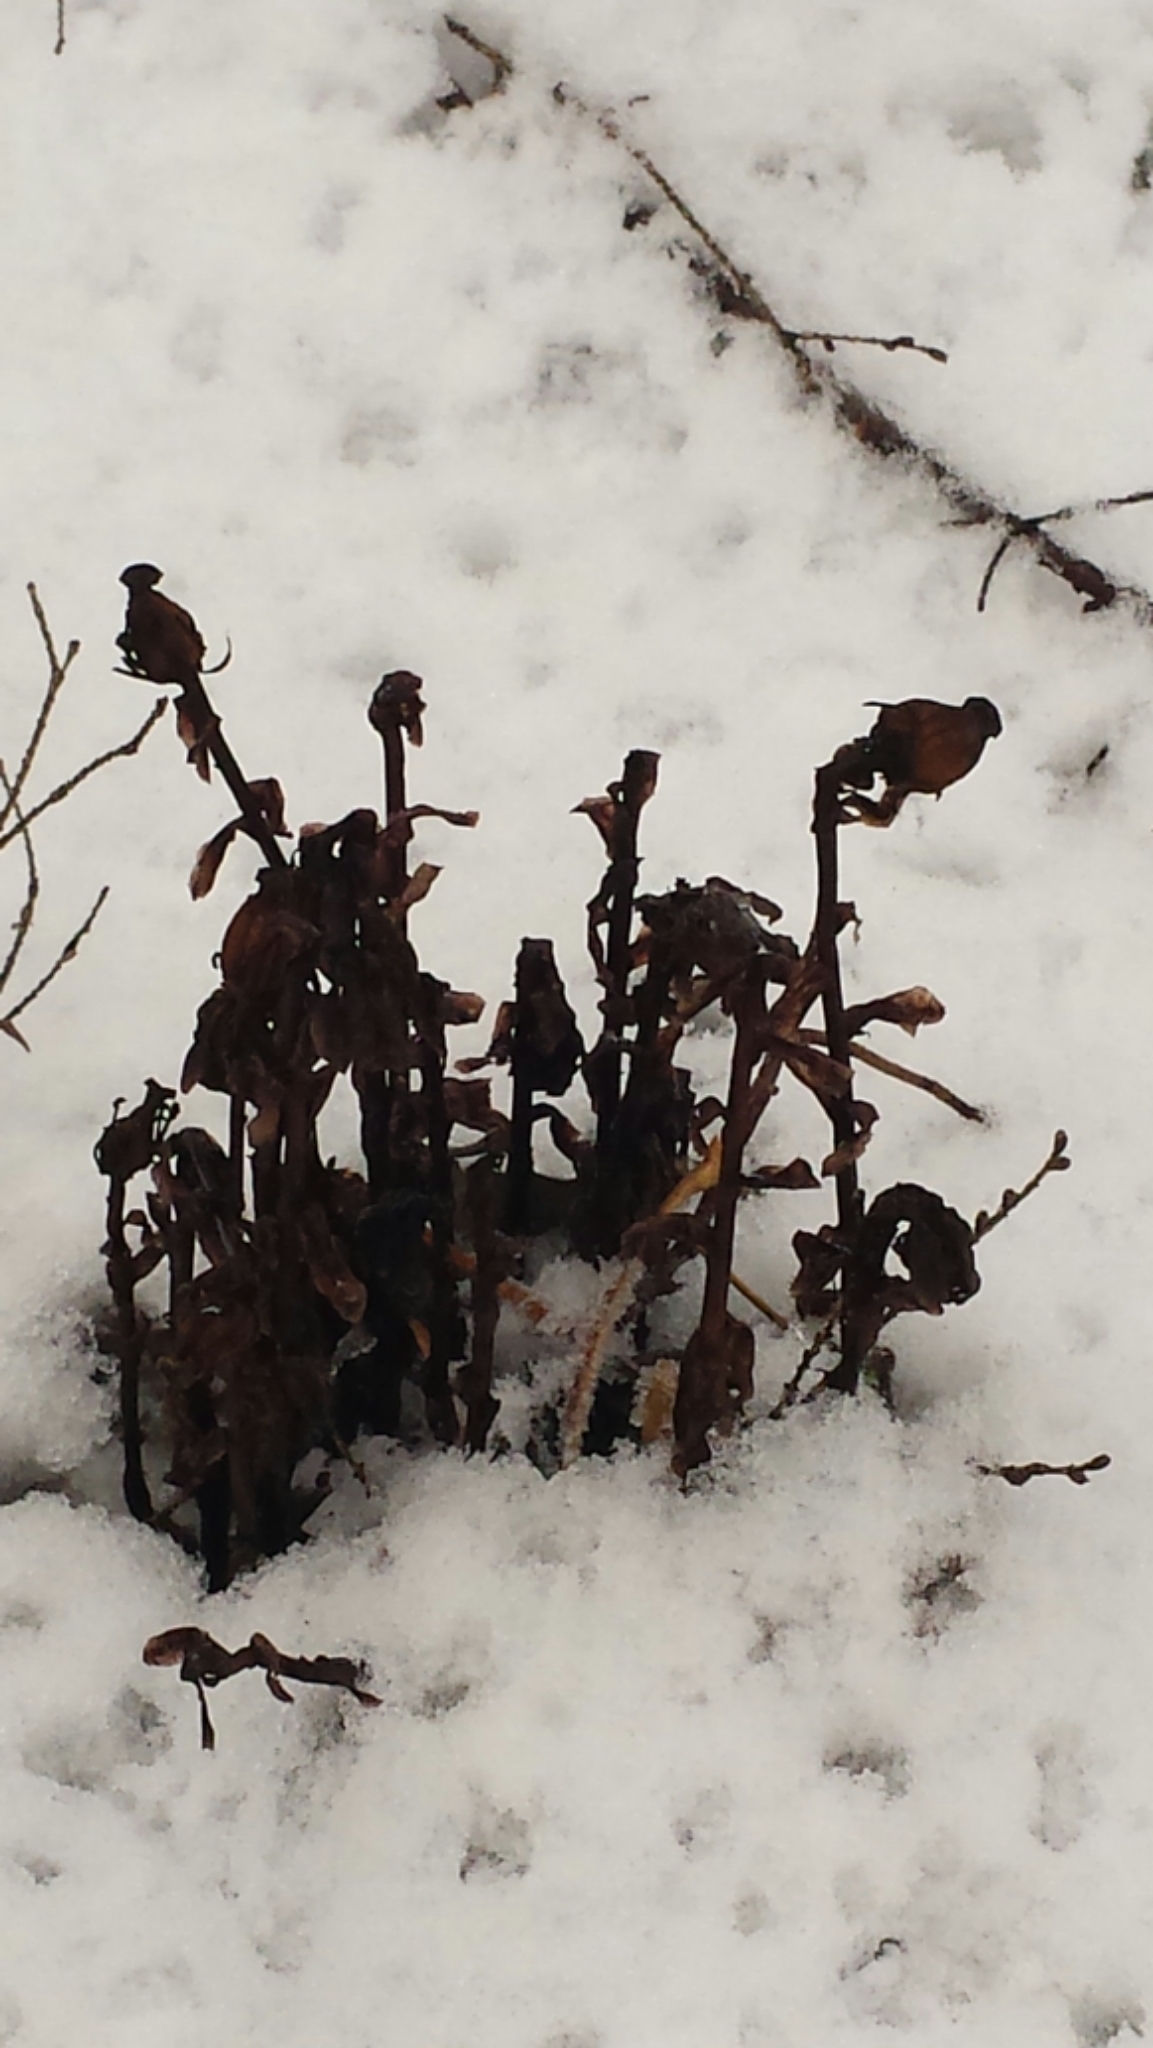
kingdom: Plantae
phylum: Tracheophyta
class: Magnoliopsida
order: Ericales
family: Ericaceae
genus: Monotropa
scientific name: Monotropa uniflora
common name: Convulsion root
